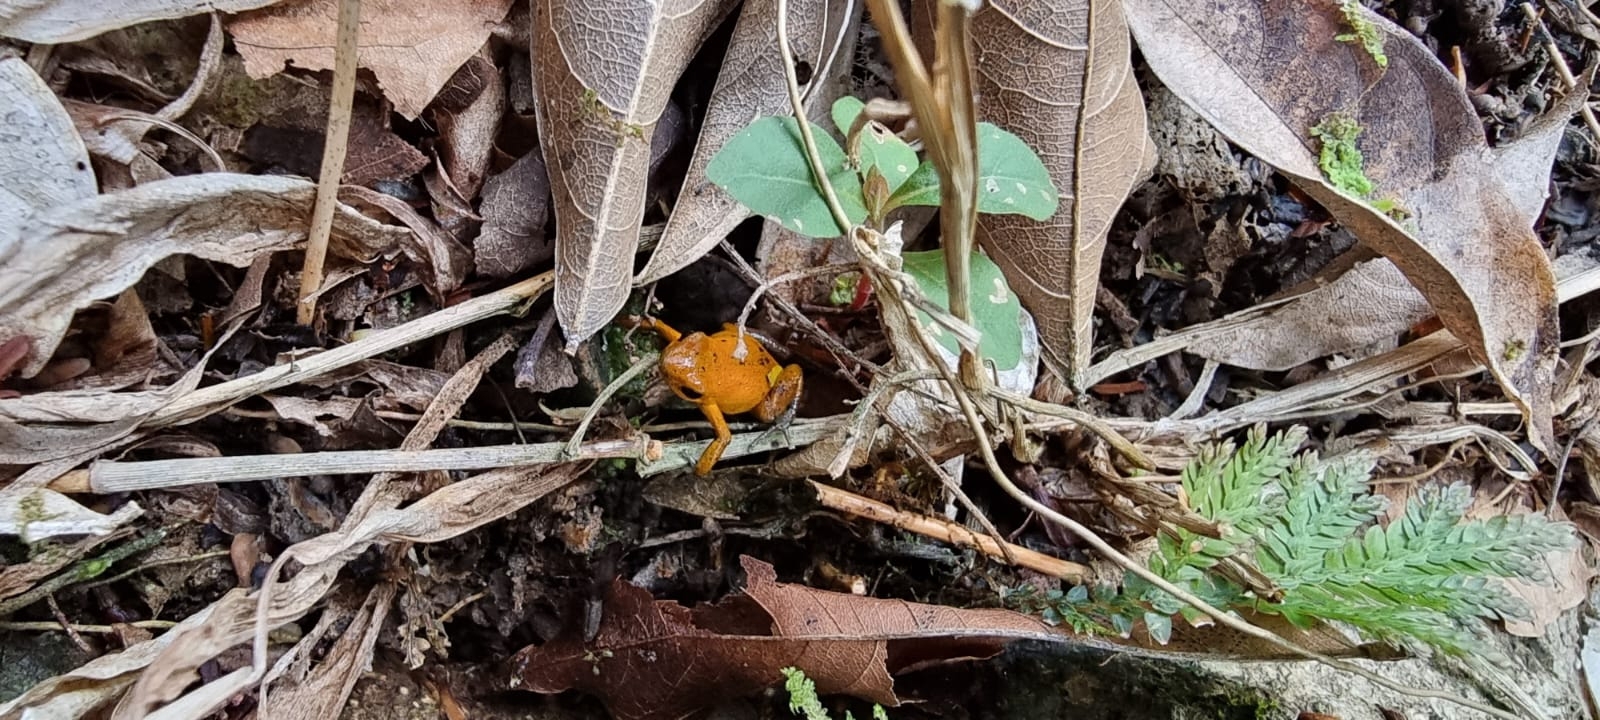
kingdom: Animalia
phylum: Chordata
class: Amphibia
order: Anura
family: Dendrobatidae
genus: Oophaga
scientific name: Oophaga pumilio
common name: Flaming poison frog
